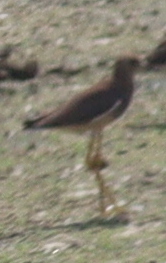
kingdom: Animalia
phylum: Chordata
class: Aves
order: Charadriiformes
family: Charadriidae
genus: Vanellus
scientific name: Vanellus leucurus
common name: White-tailed lapwing
